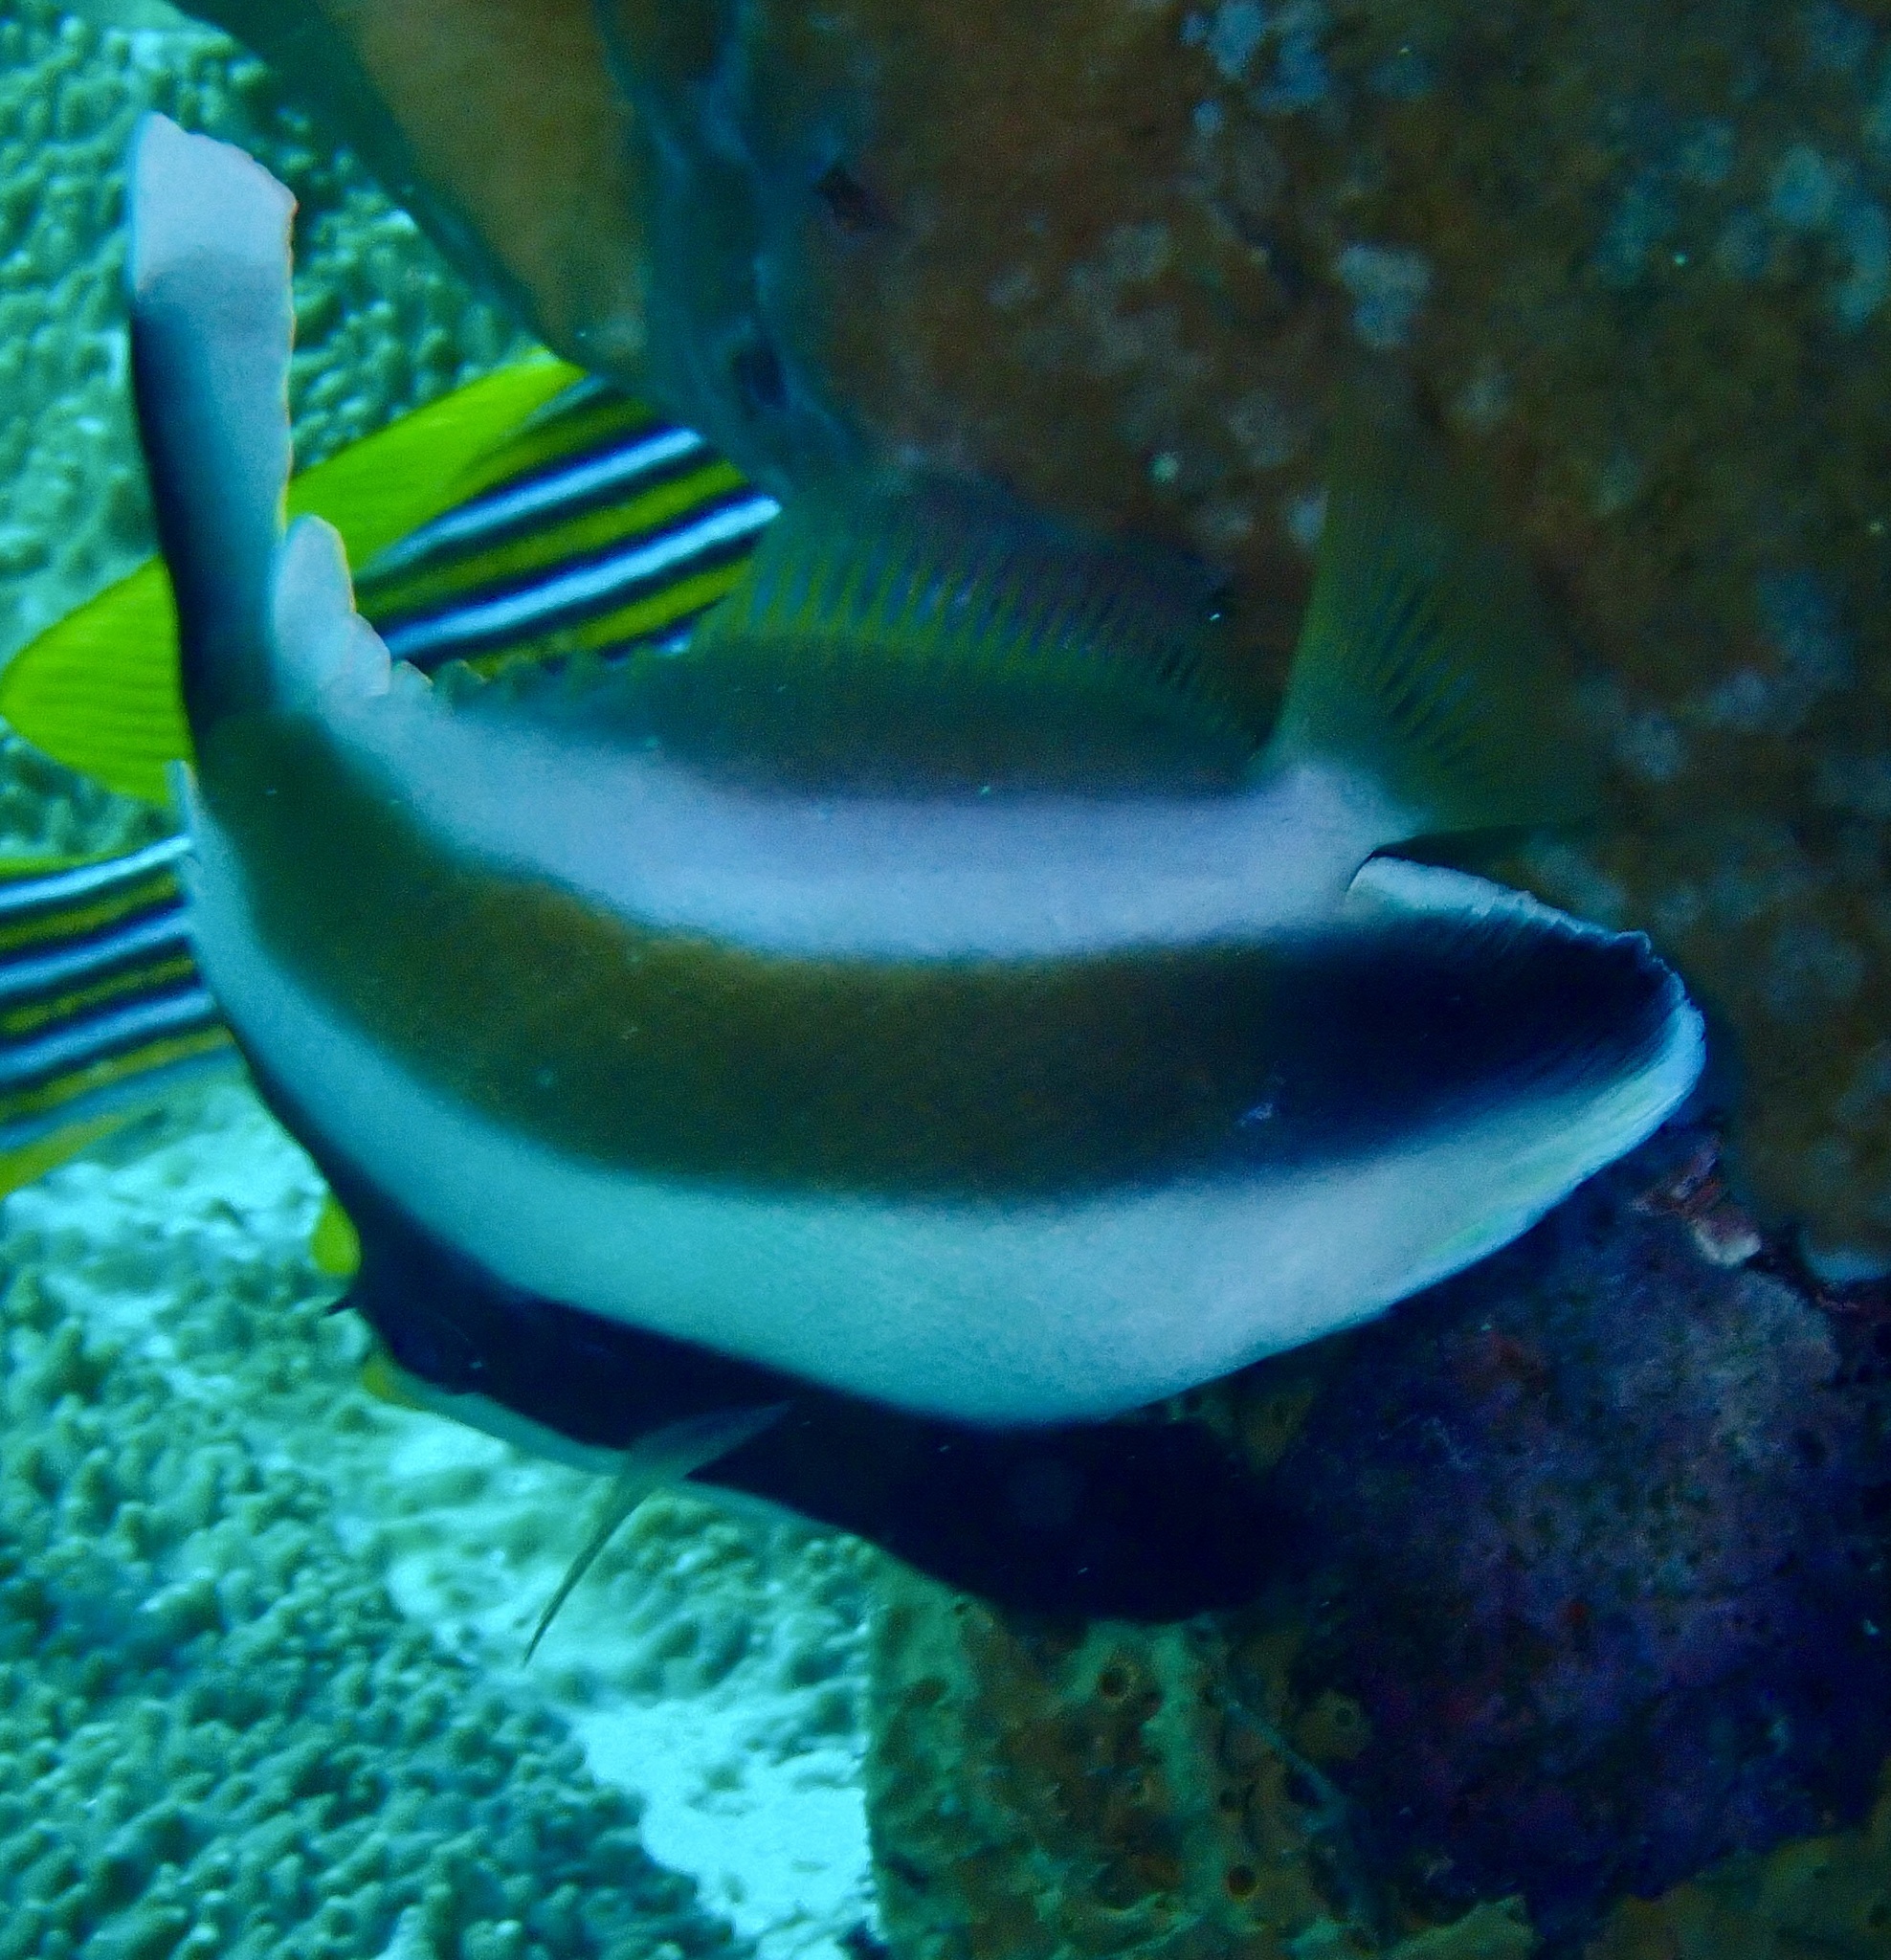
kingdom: Animalia
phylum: Chordata
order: Perciformes
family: Chaetodontidae
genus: Heniochus
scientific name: Heniochus chrysostomus
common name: Horned bannerfish
